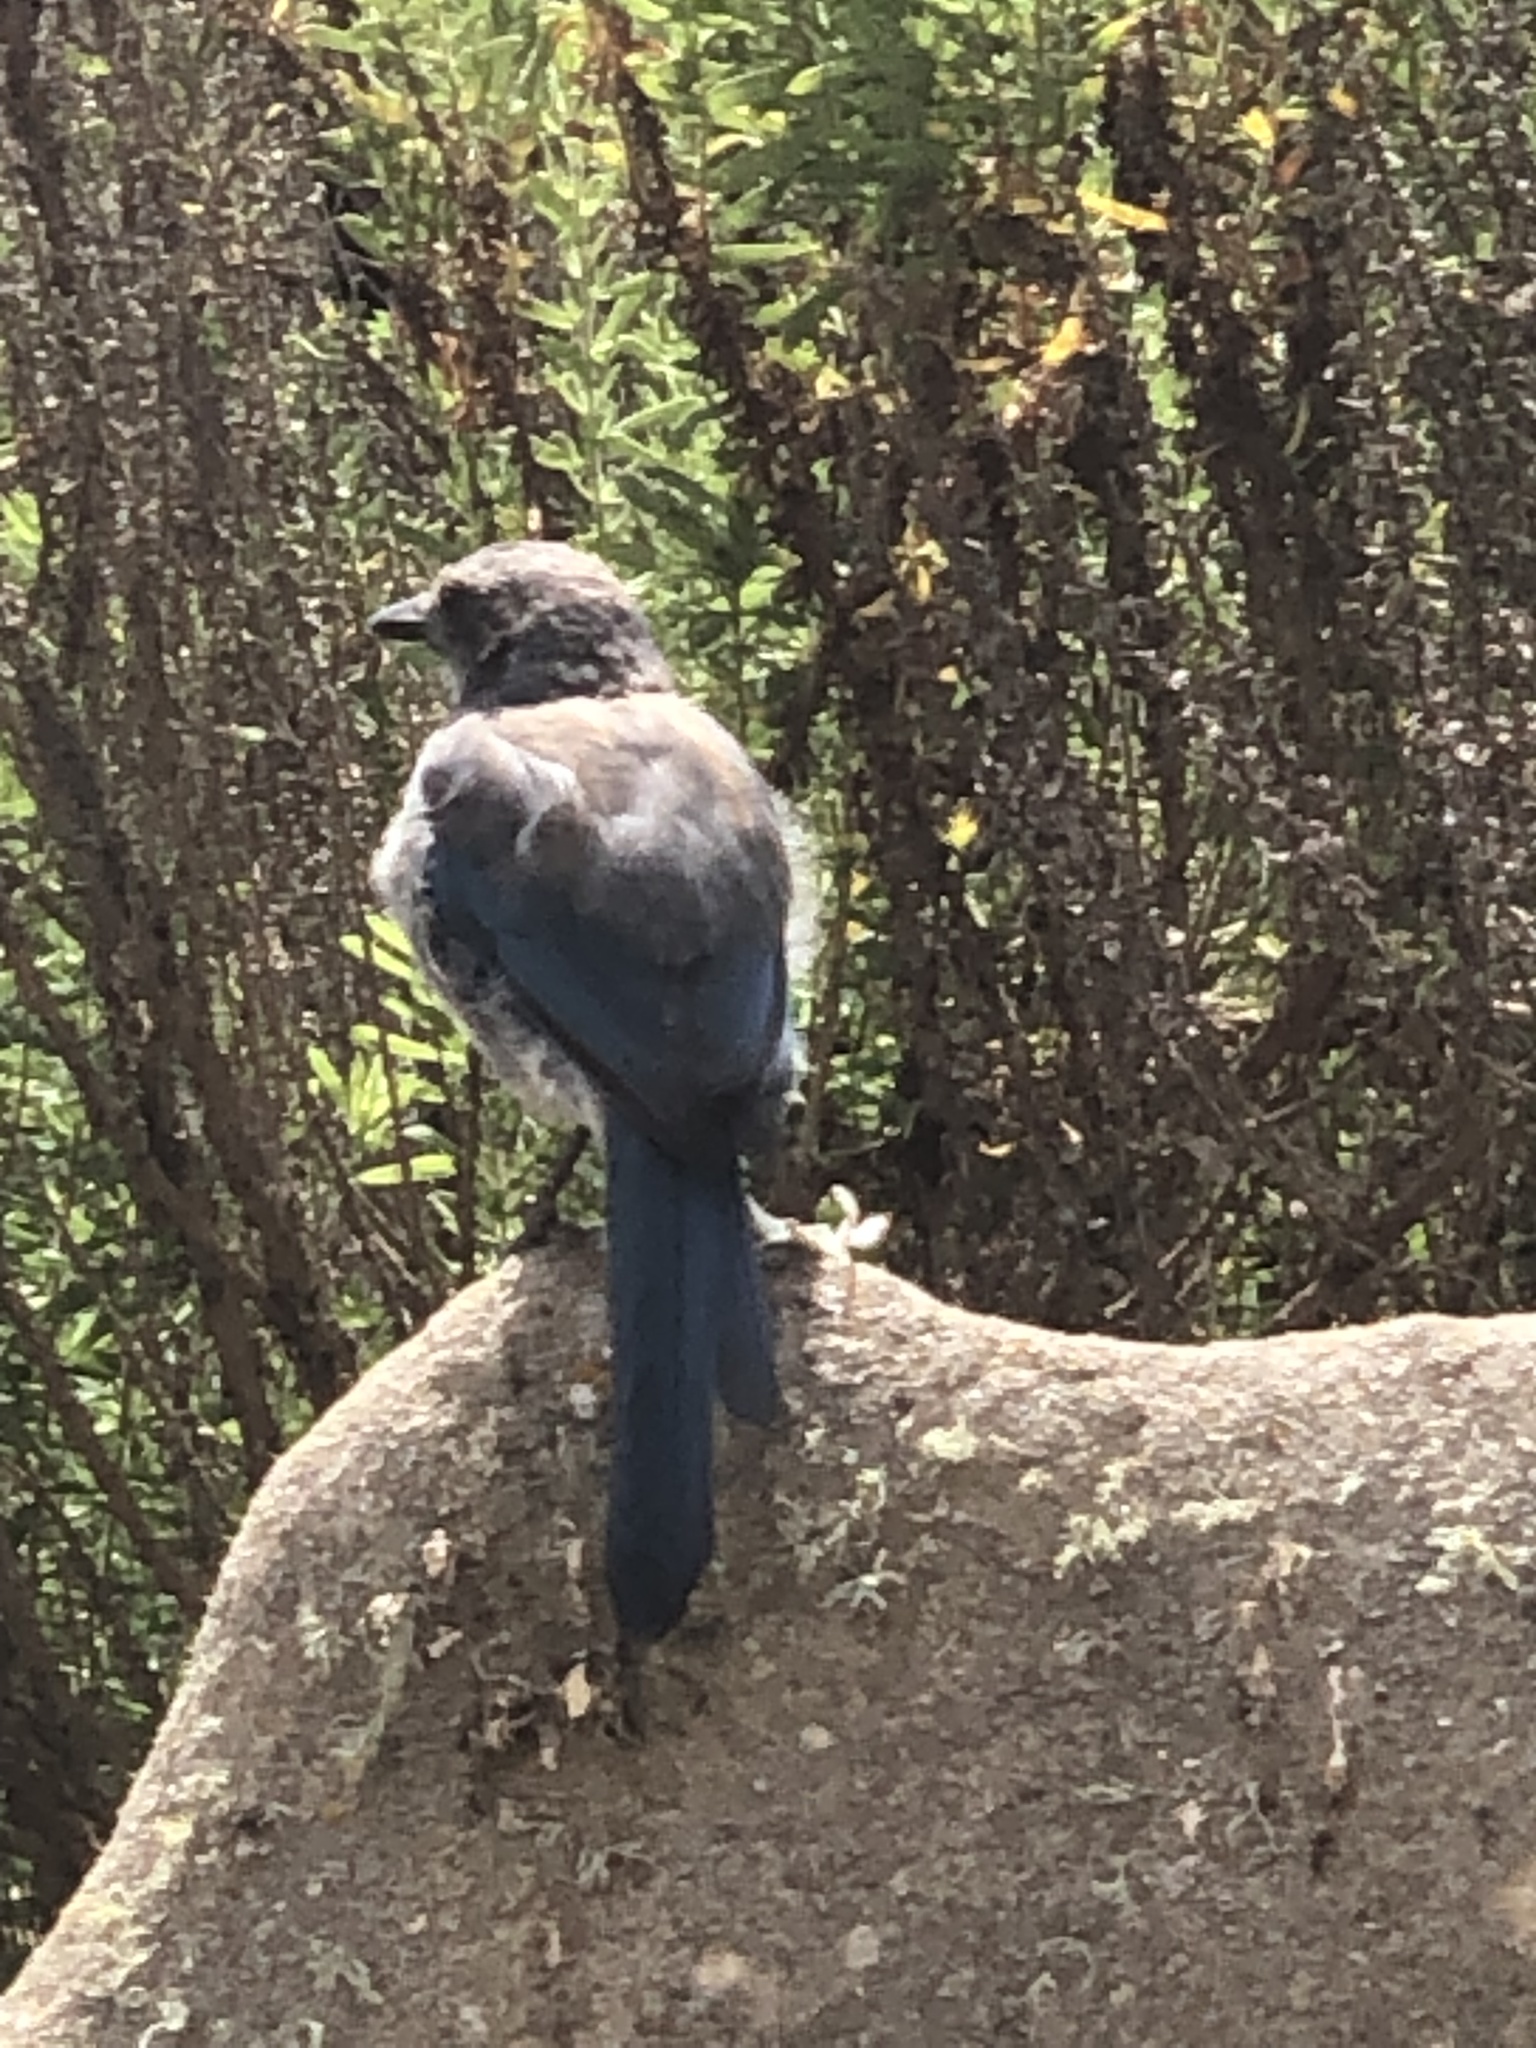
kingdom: Animalia
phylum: Chordata
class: Aves
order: Passeriformes
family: Corvidae
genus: Aphelocoma
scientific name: Aphelocoma californica
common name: California scrub-jay
